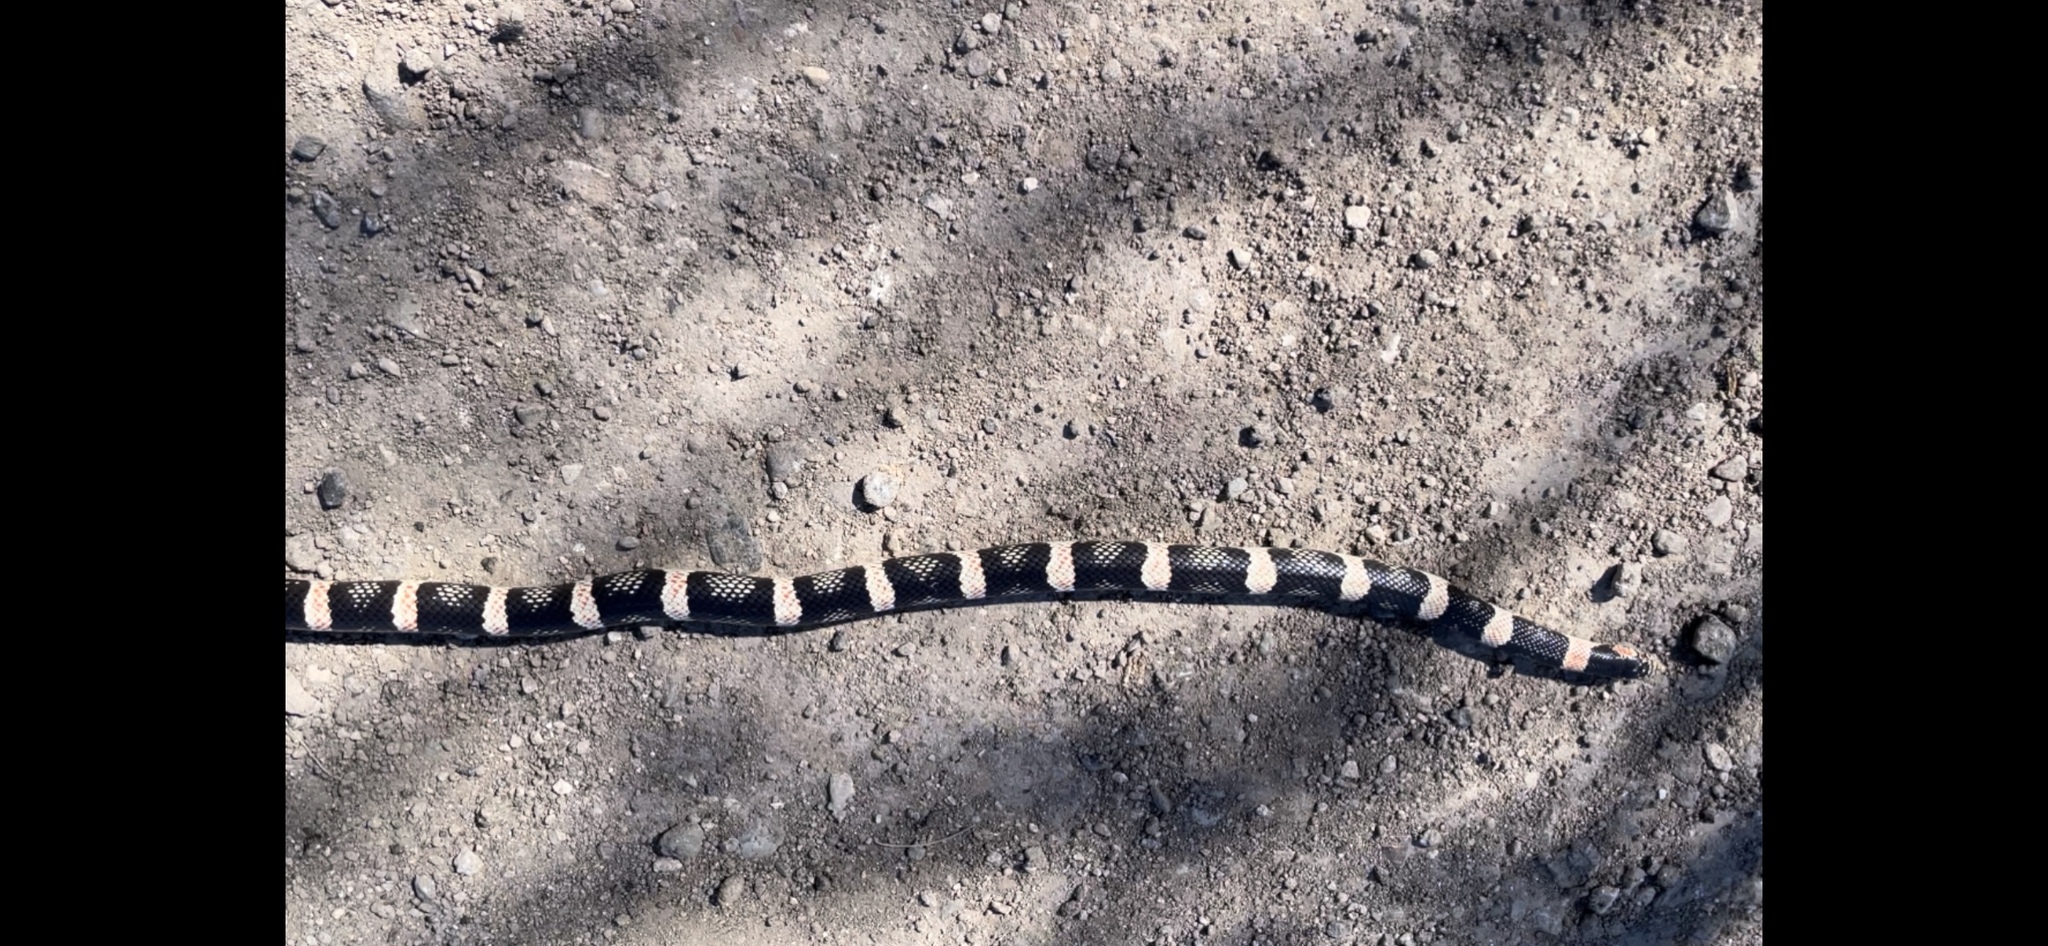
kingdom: Animalia
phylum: Chordata
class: Squamata
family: Colubridae
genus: Rhinocheilus
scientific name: Rhinocheilus lecontei
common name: Longnose snake
